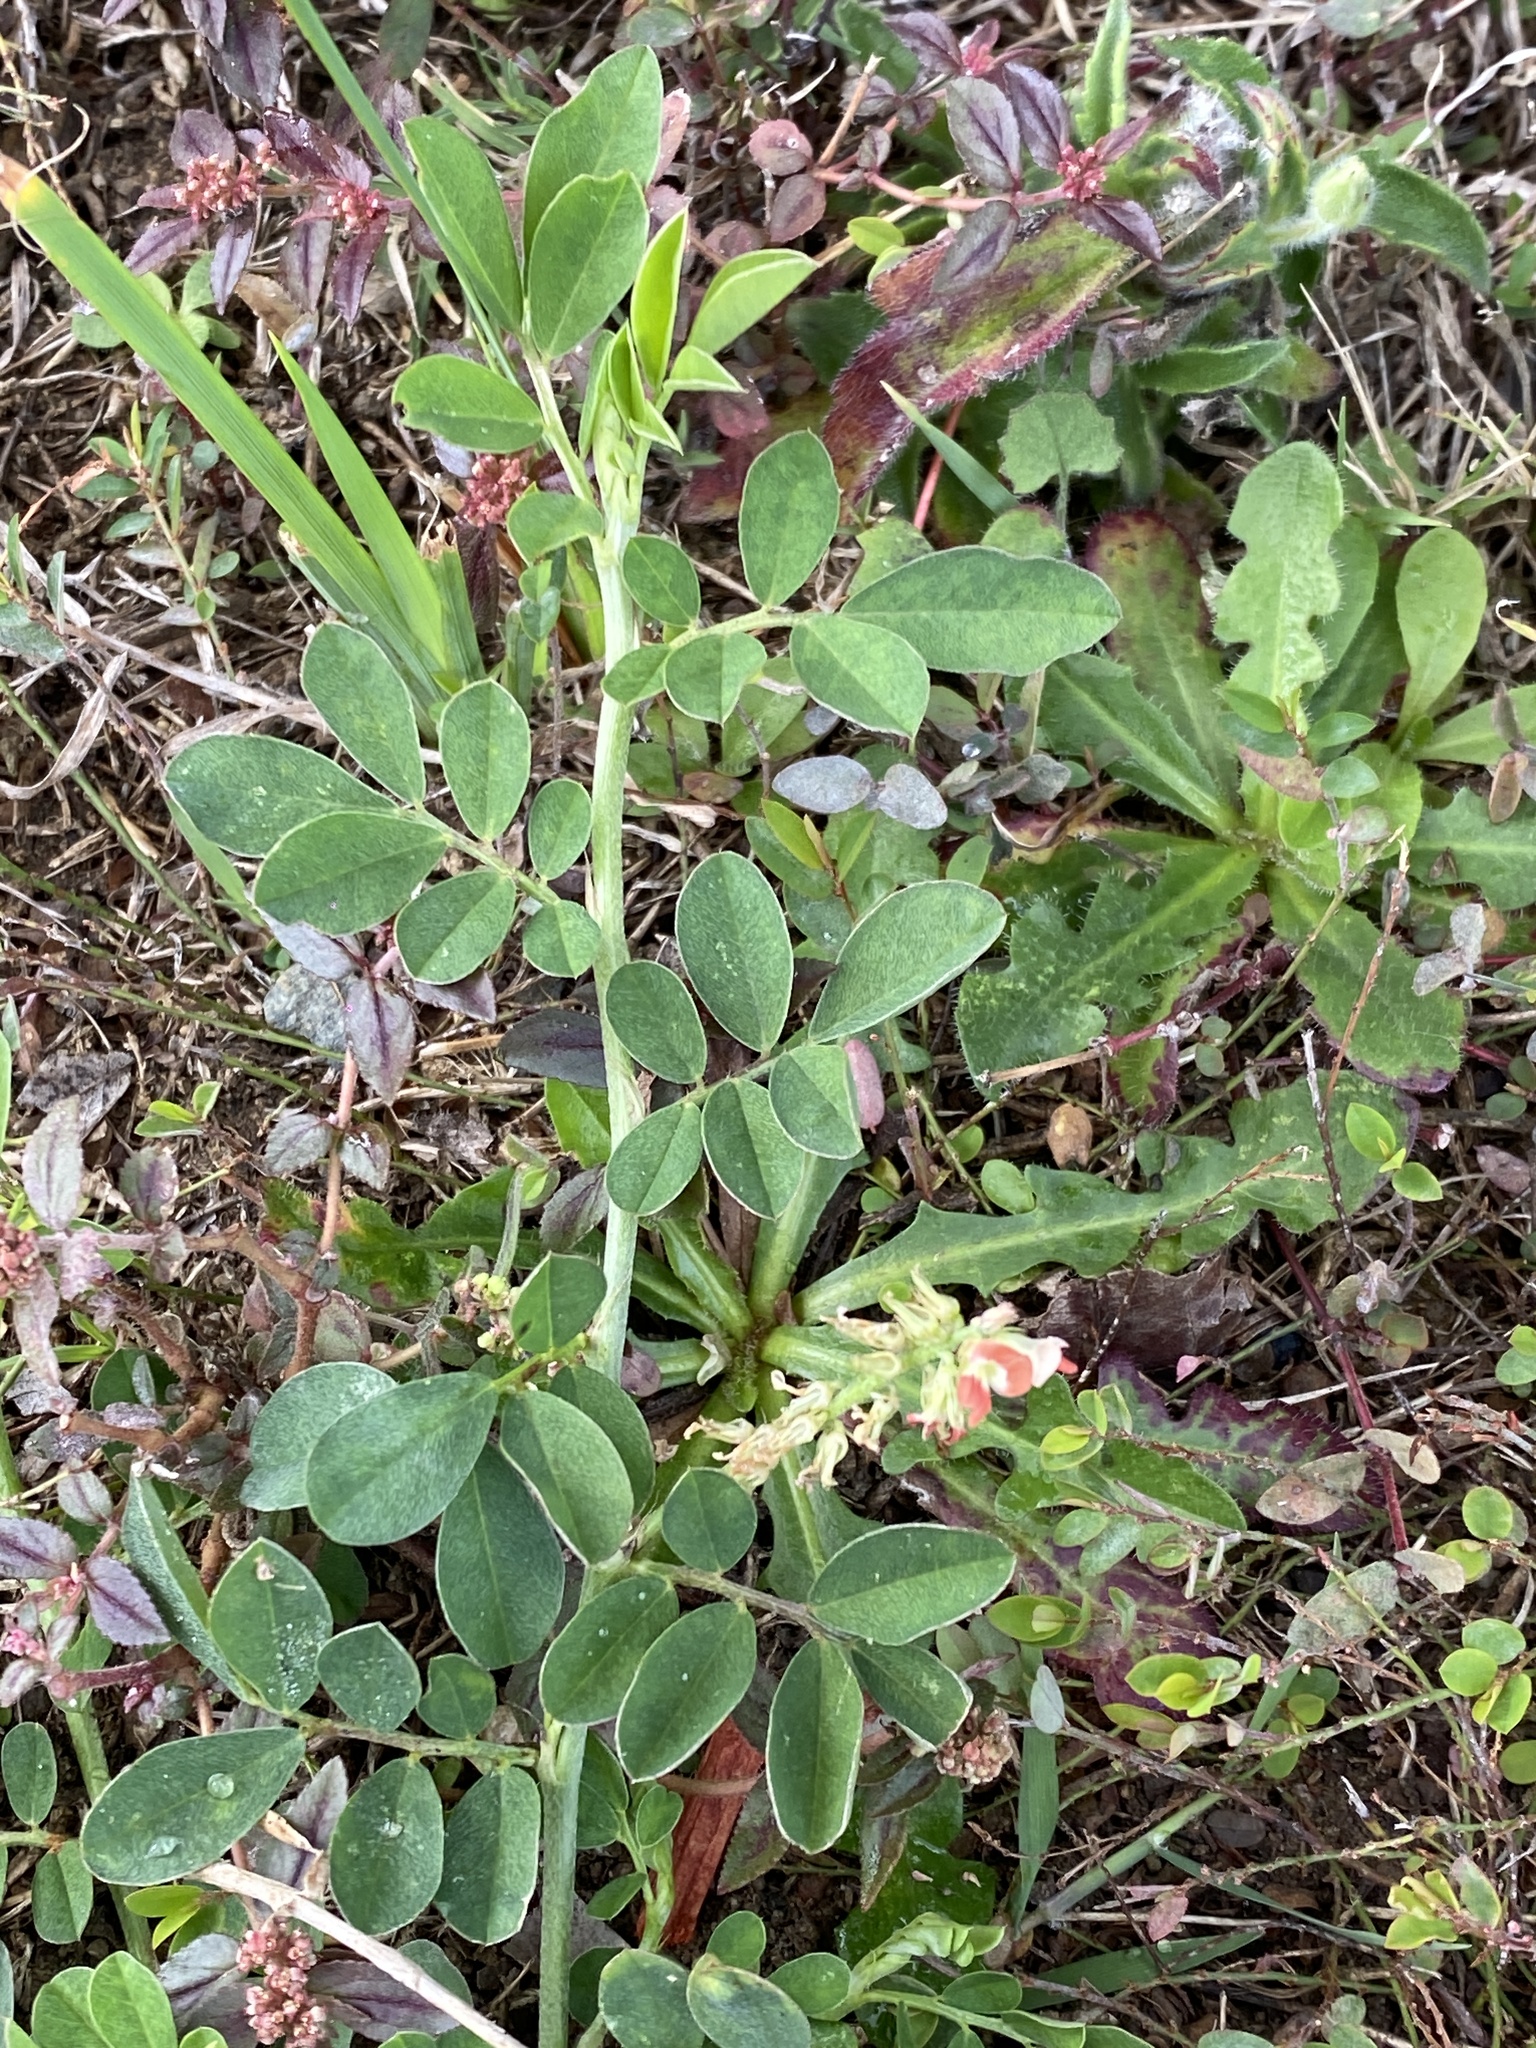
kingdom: Plantae
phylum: Tracheophyta
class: Magnoliopsida
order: Fabales
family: Fabaceae
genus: Indigofera
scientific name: Indigofera spicata
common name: Creeping indigo
